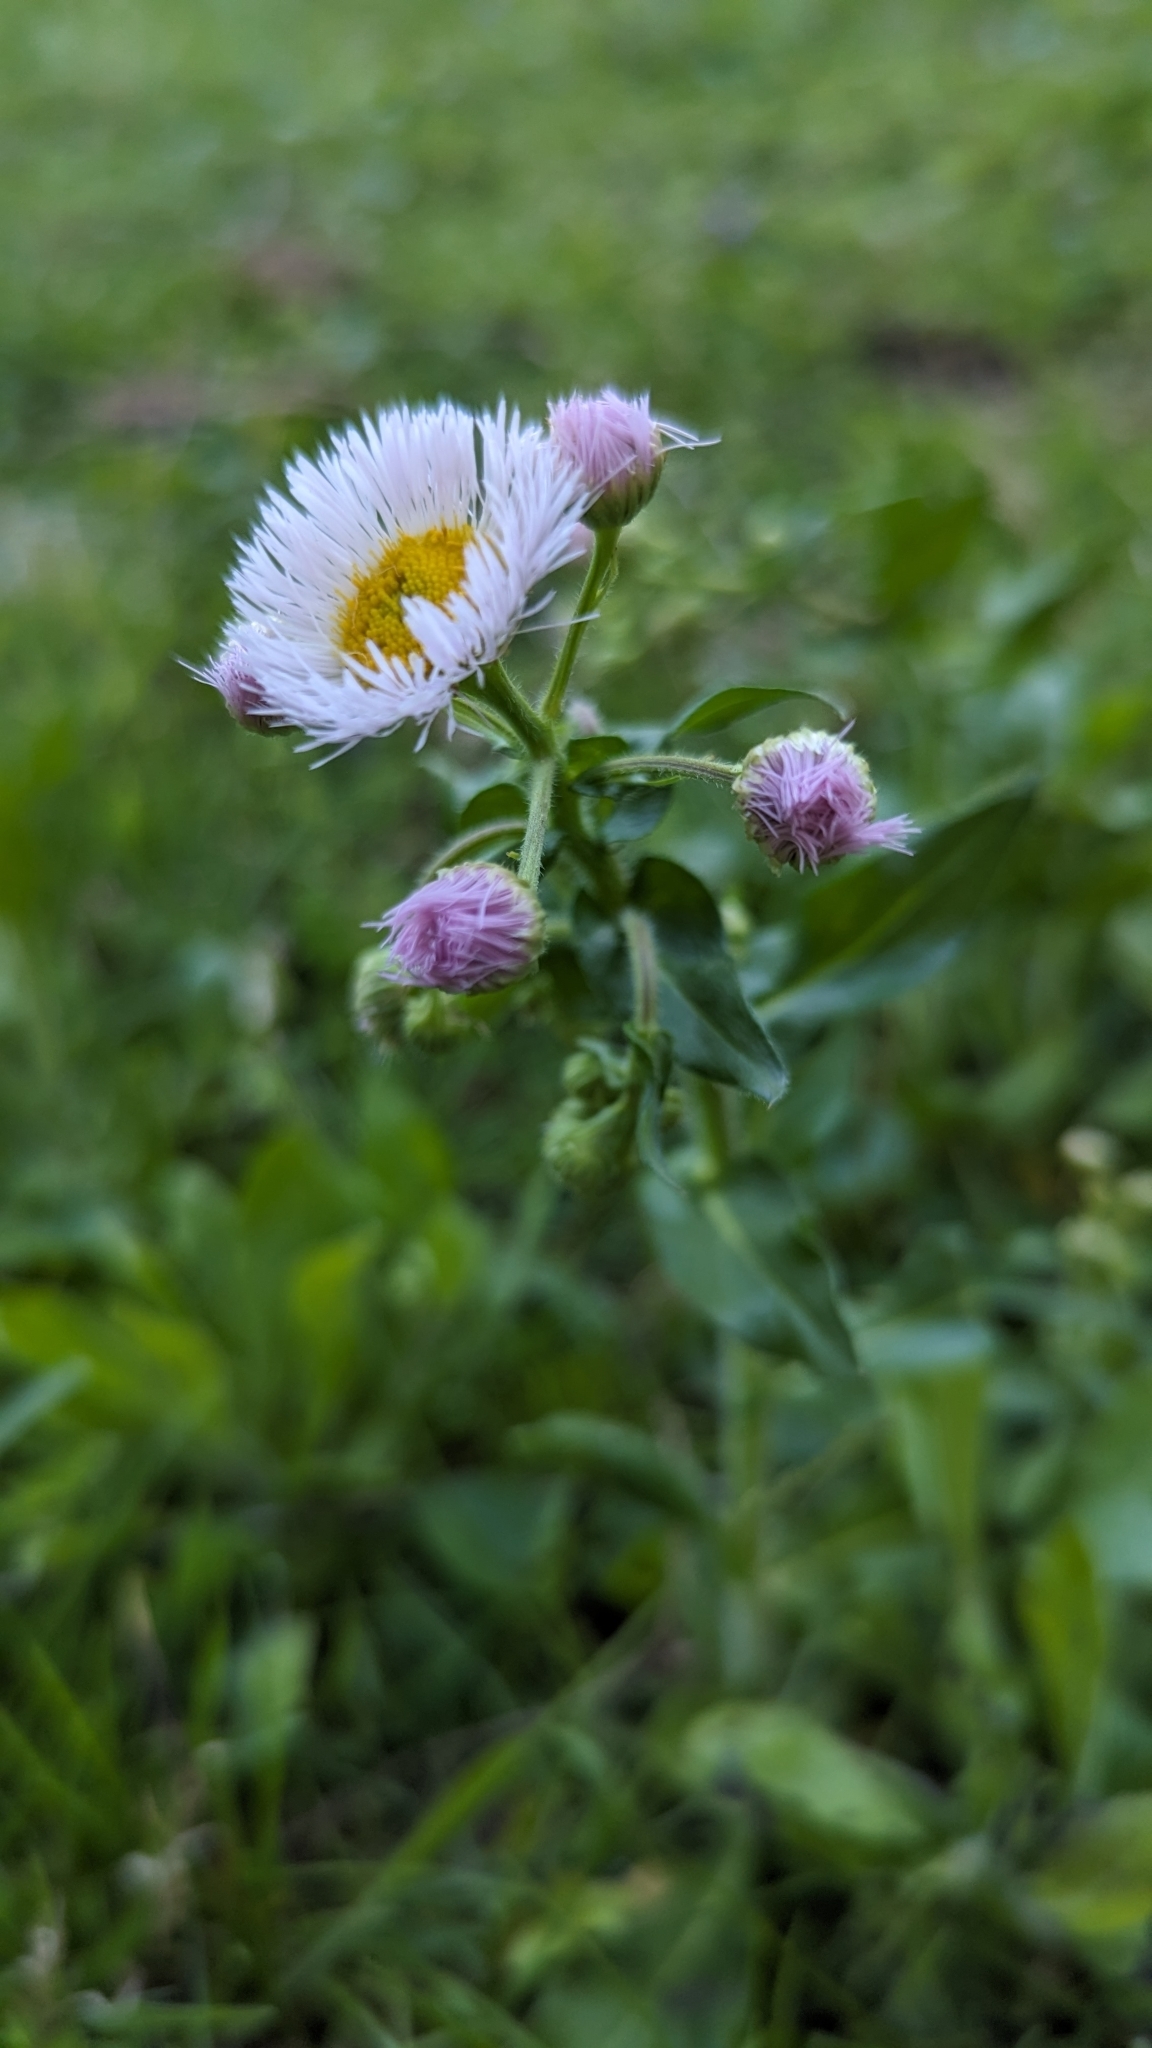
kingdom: Plantae
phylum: Tracheophyta
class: Magnoliopsida
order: Asterales
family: Asteraceae
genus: Erigeron
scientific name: Erigeron philadelphicus
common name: Robin's-plantain
